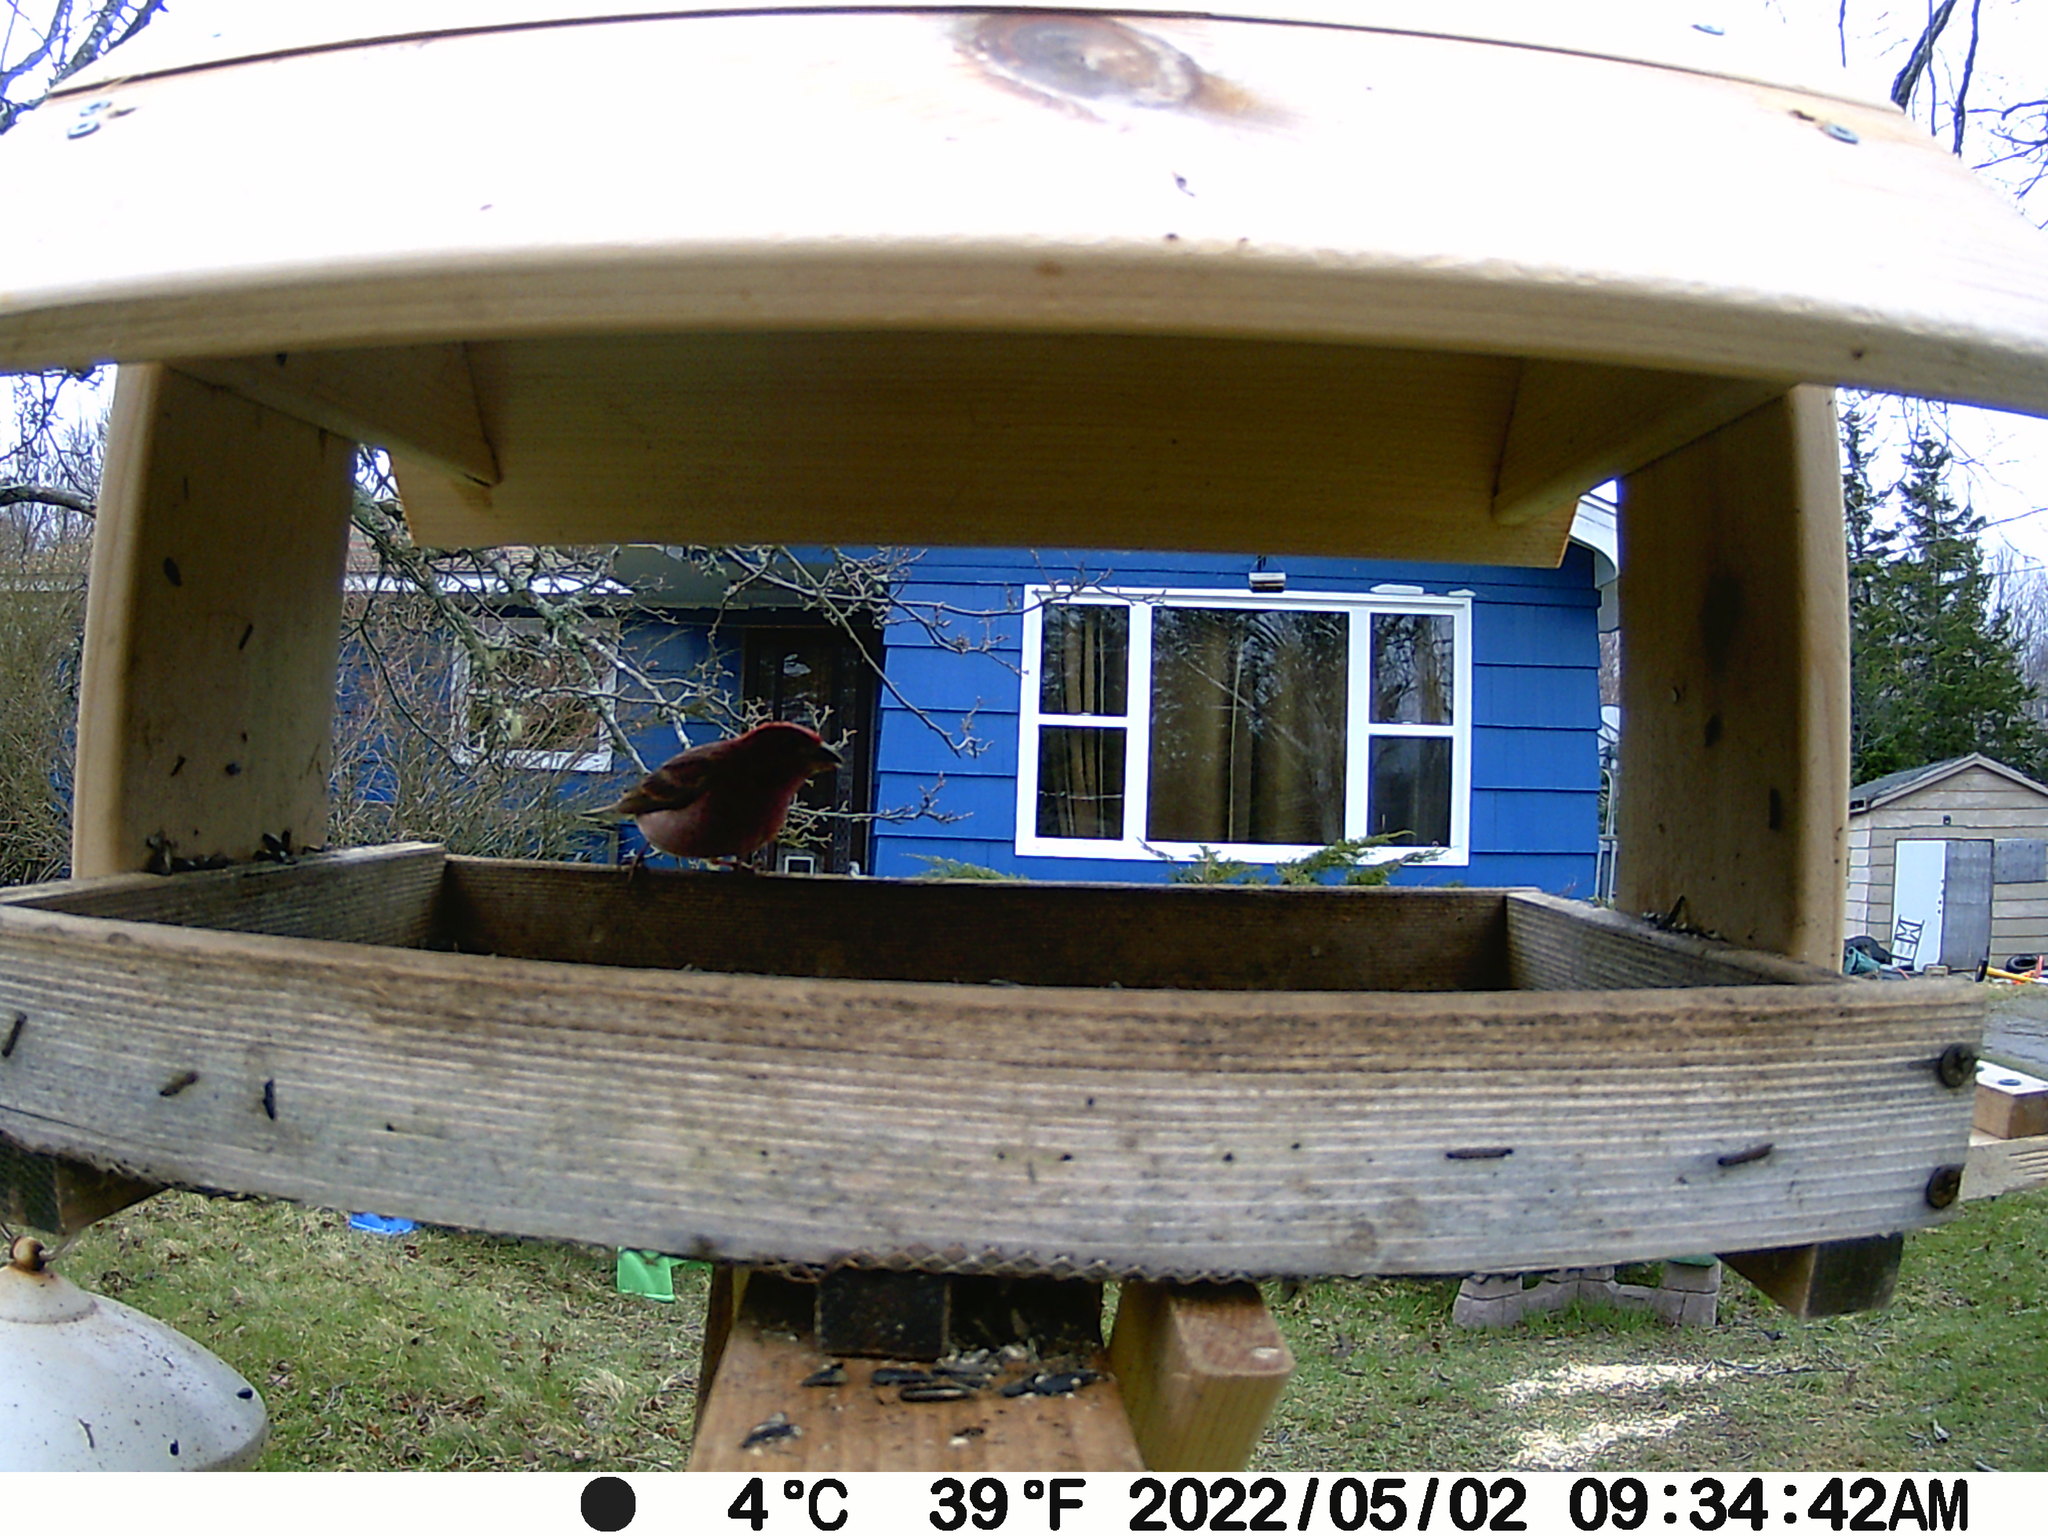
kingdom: Animalia
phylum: Chordata
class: Aves
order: Passeriformes
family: Fringillidae
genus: Haemorhous
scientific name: Haemorhous purpureus
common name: Purple finch
